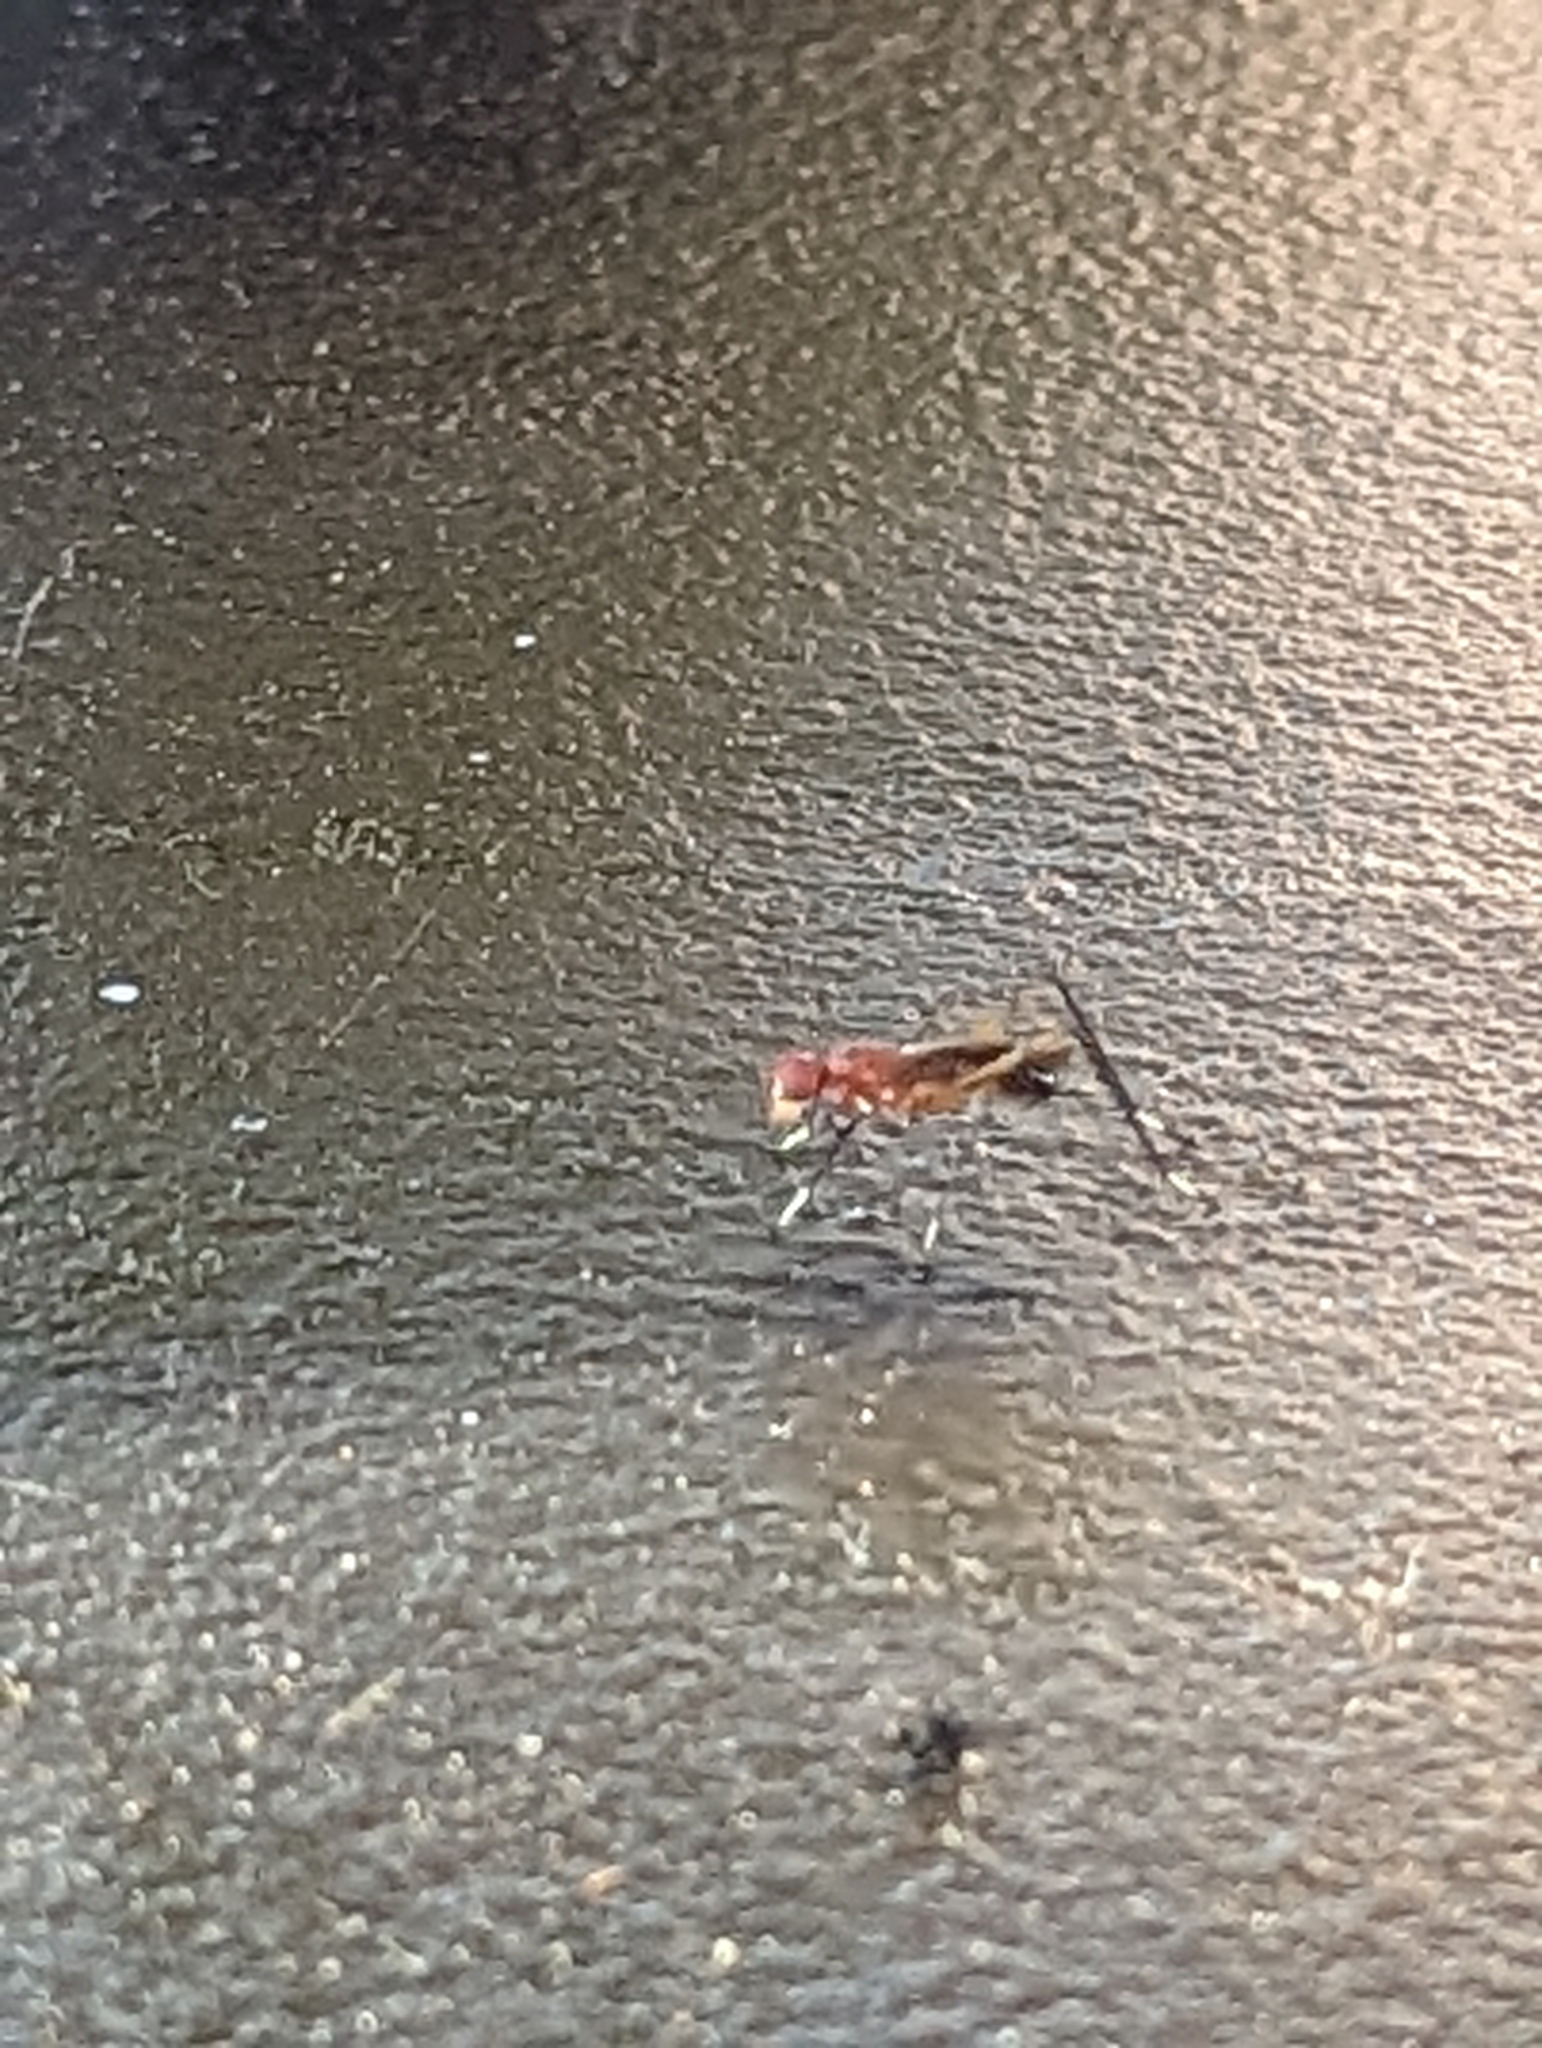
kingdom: Animalia
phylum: Arthropoda
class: Insecta
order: Diptera
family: Micropezidae
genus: Grallipeza
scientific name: Grallipeza nebulosa
